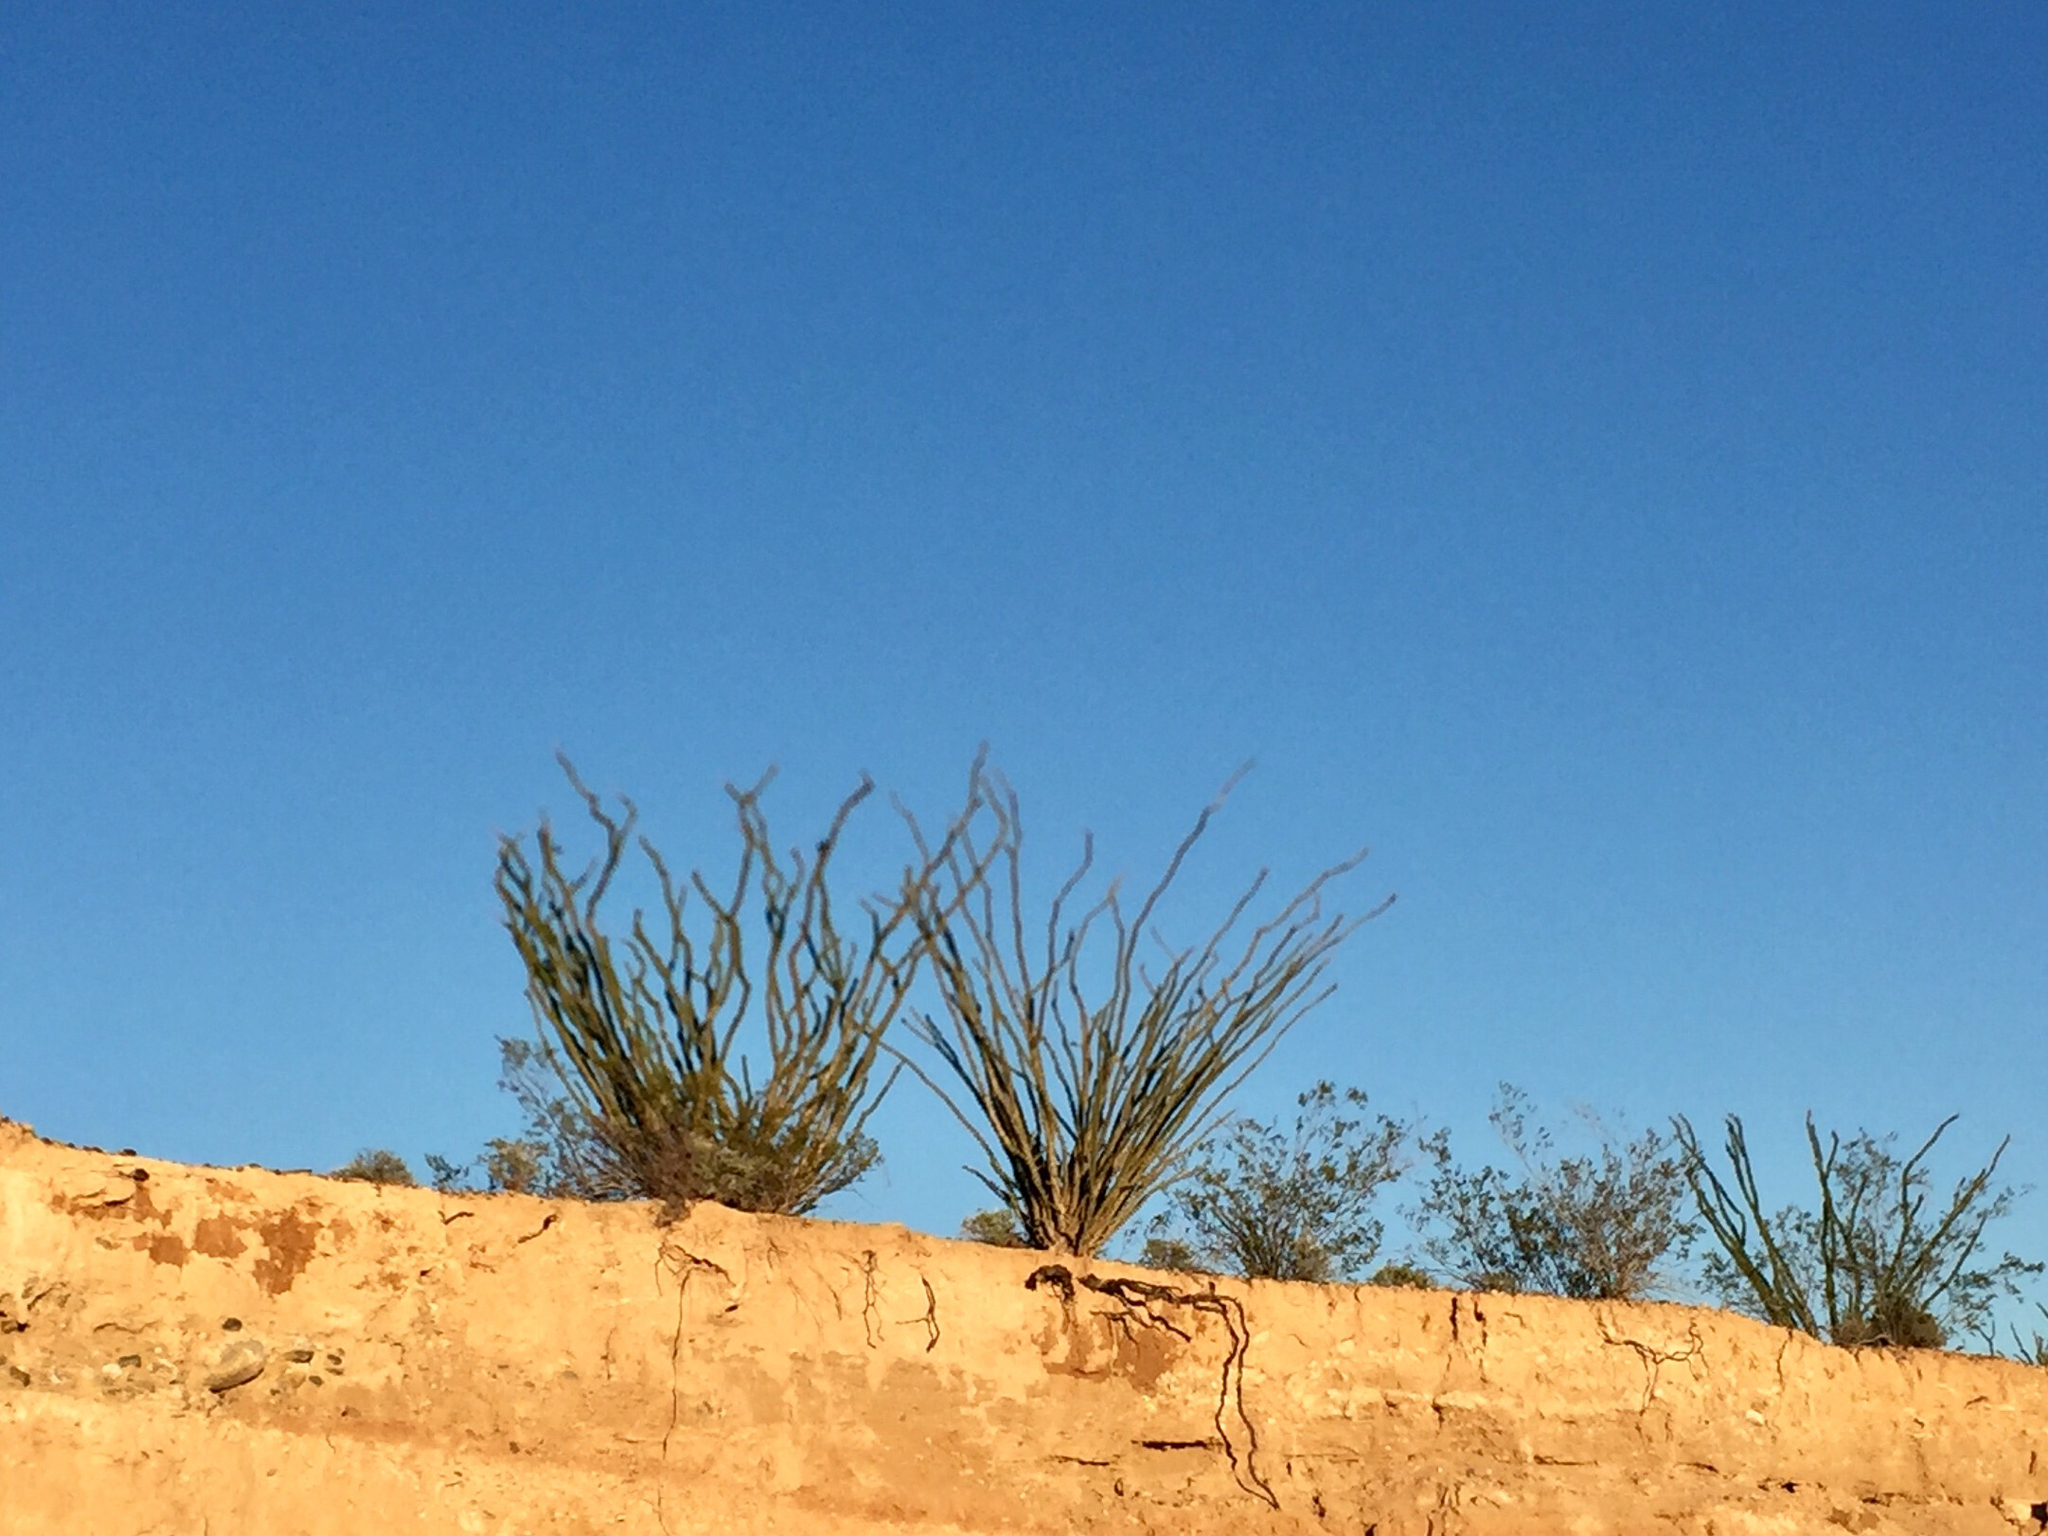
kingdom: Plantae
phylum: Tracheophyta
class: Magnoliopsida
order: Ericales
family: Fouquieriaceae
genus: Fouquieria
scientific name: Fouquieria splendens
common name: Vine-cactus
